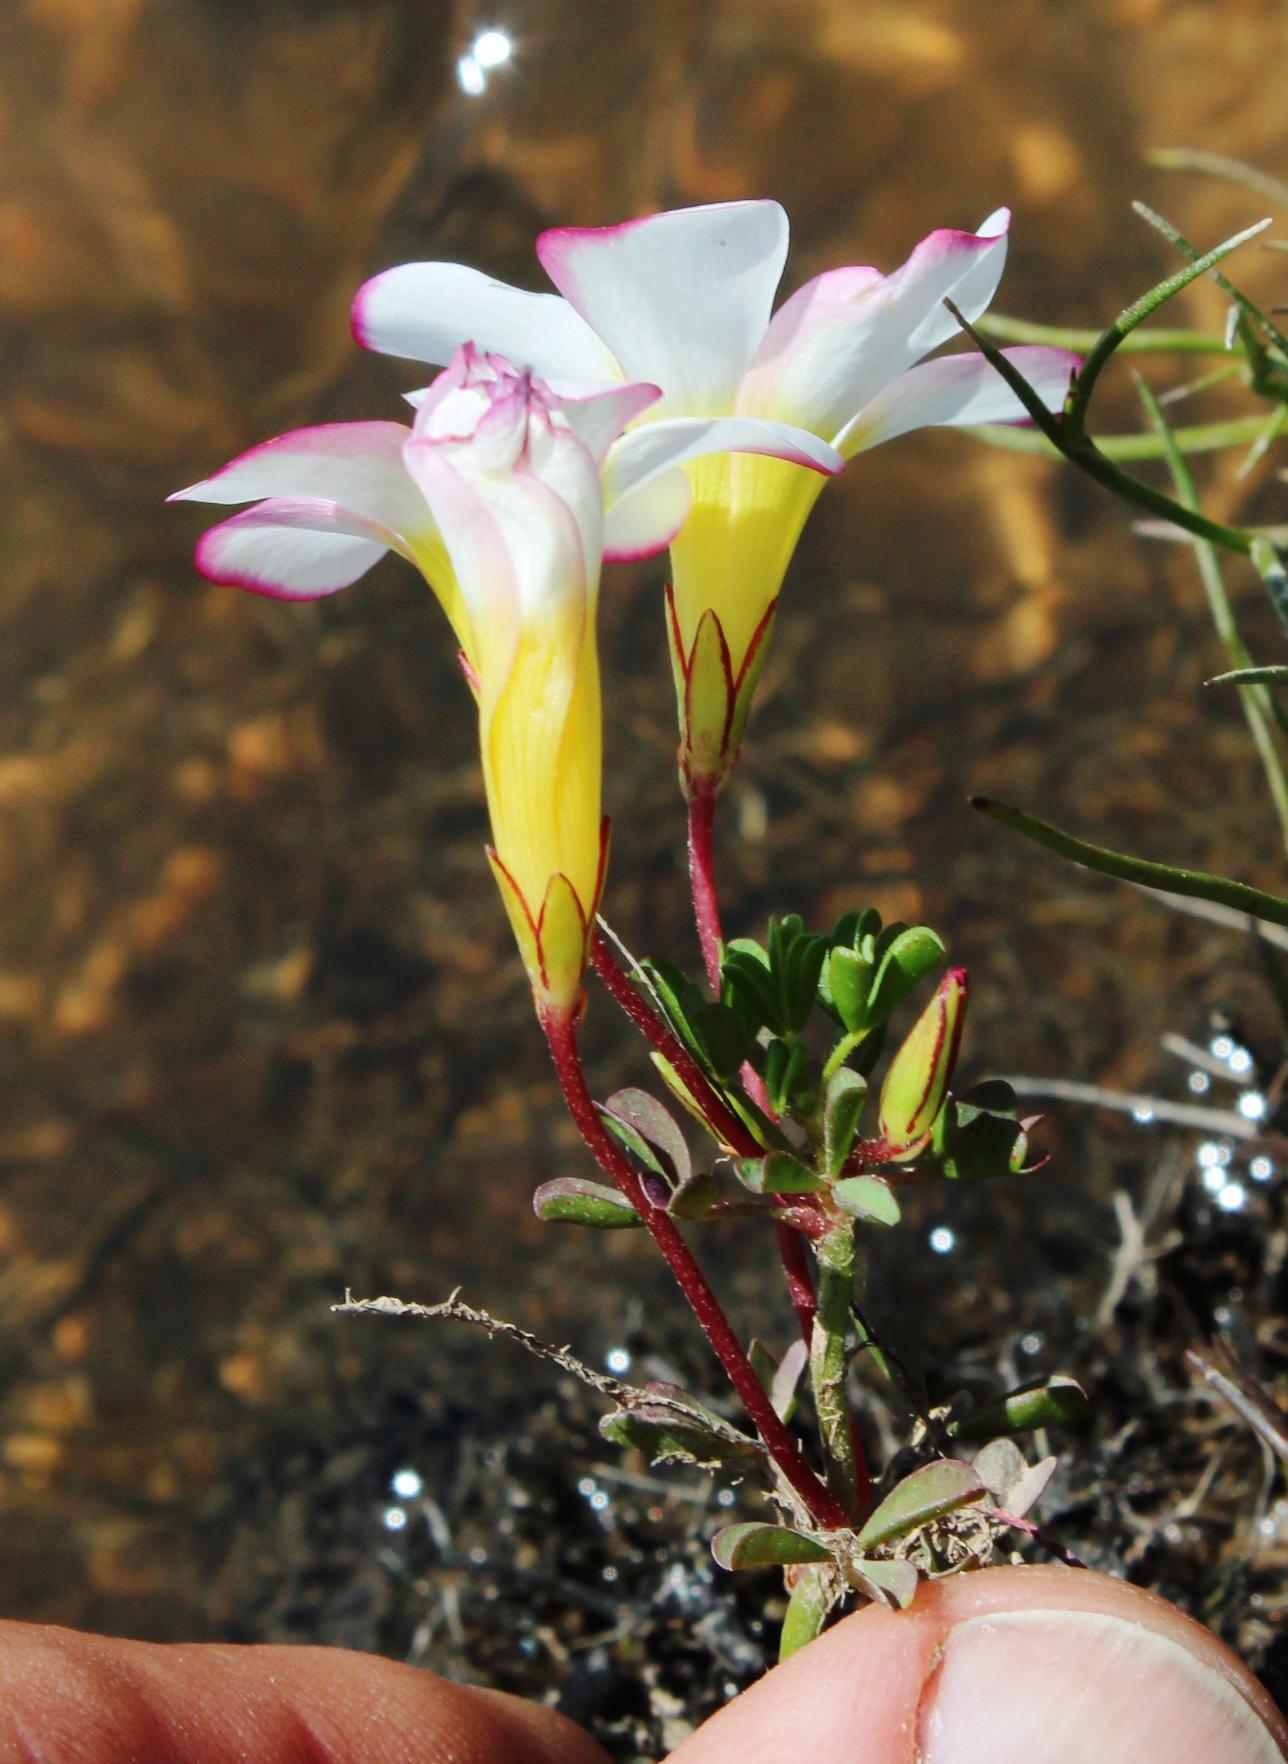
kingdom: Plantae
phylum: Tracheophyta
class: Magnoliopsida
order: Oxalidales
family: Oxalidaceae
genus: Oxalis
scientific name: Oxalis recticaulis
